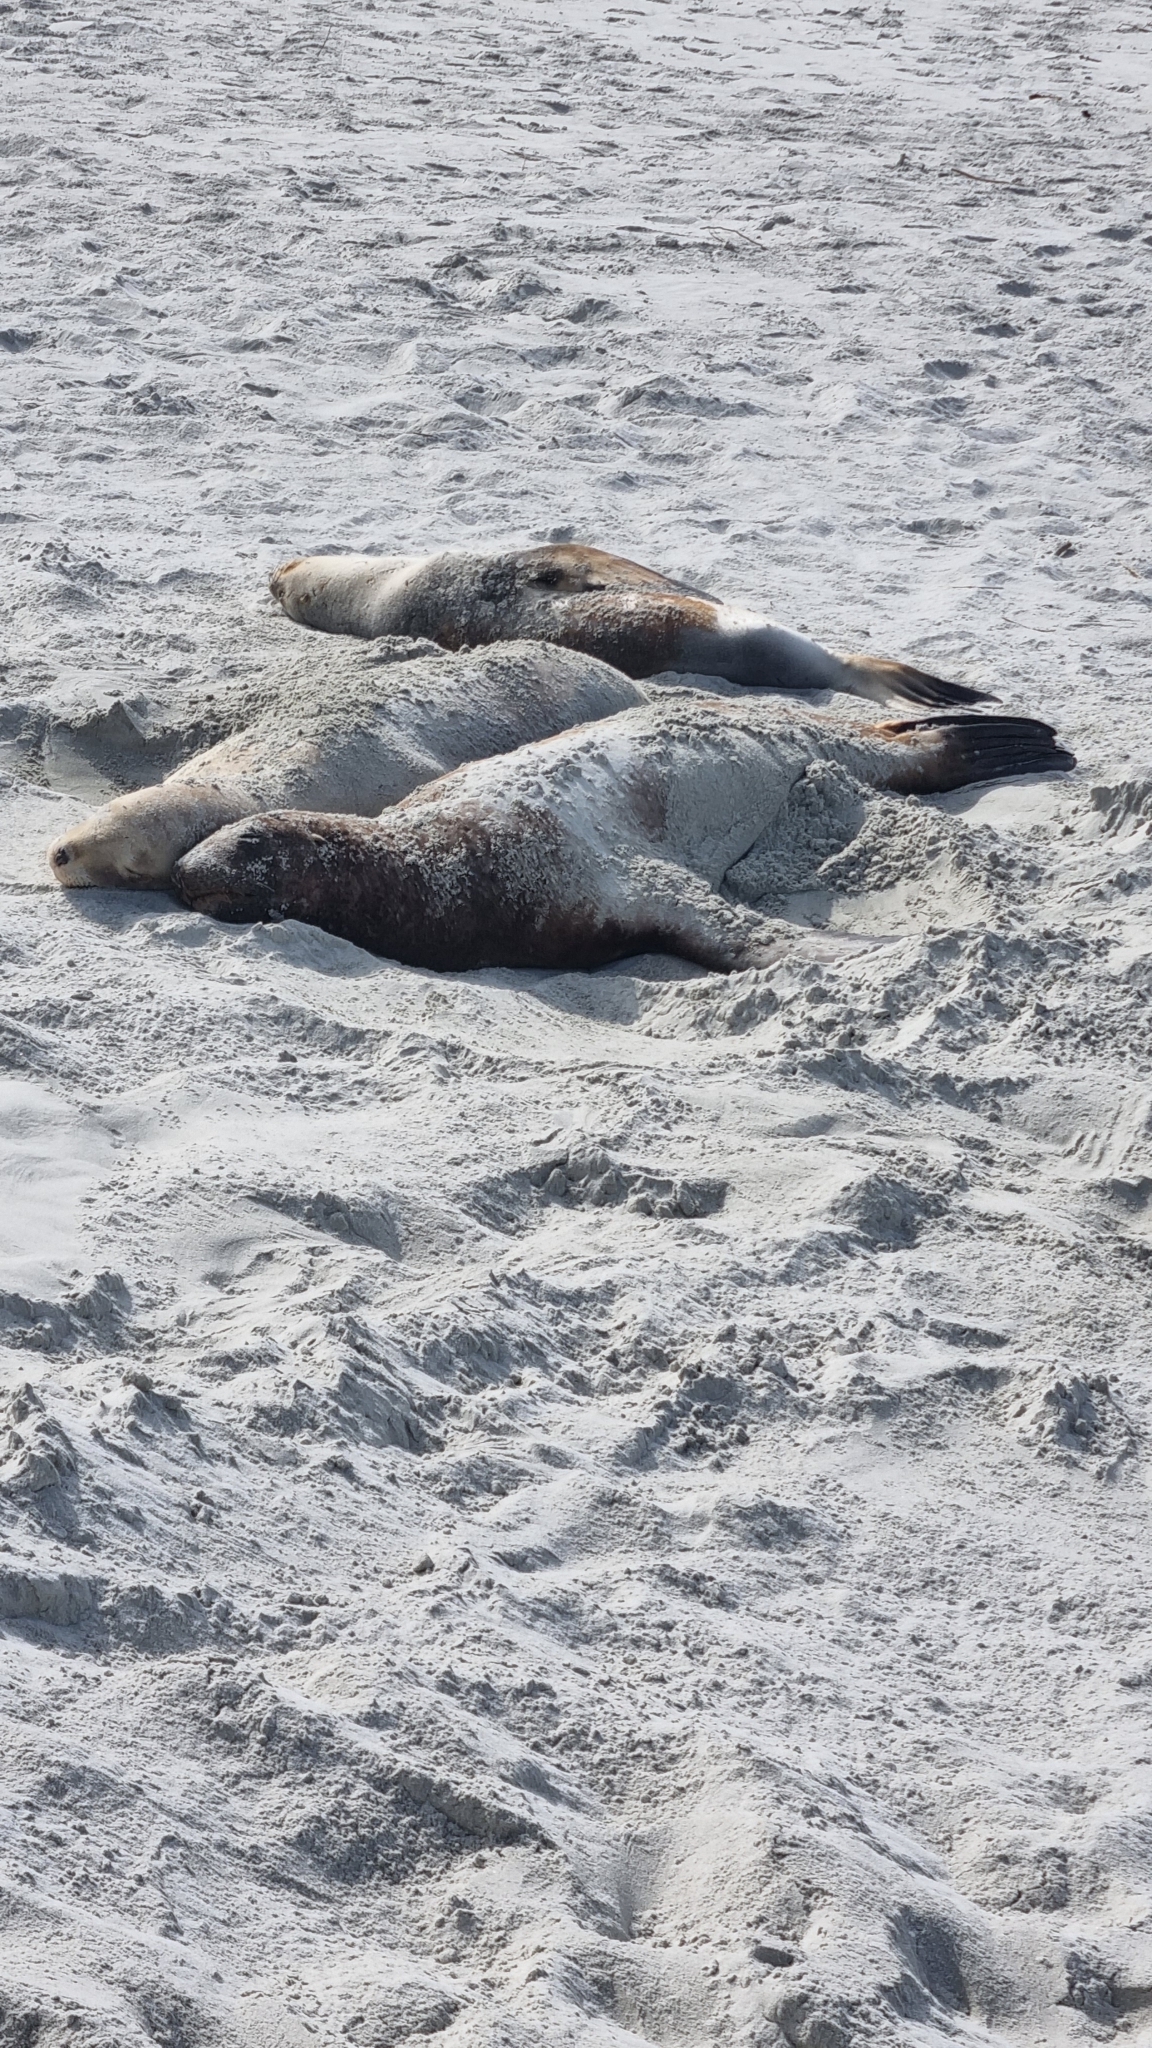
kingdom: Animalia
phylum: Chordata
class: Mammalia
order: Carnivora
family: Otariidae
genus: Phocarctos
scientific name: Phocarctos hookeri
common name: New zealand sea lion
